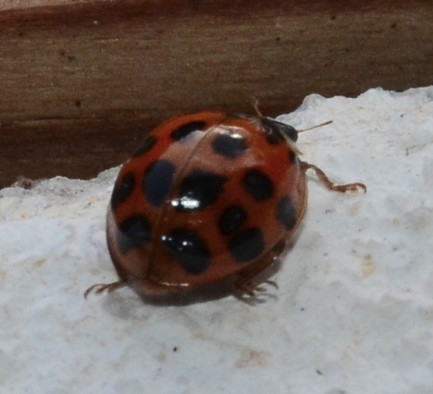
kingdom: Animalia
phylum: Arthropoda
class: Insecta
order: Coleoptera
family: Coccinellidae
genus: Harmonia
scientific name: Harmonia axyridis
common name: Harlequin ladybird
